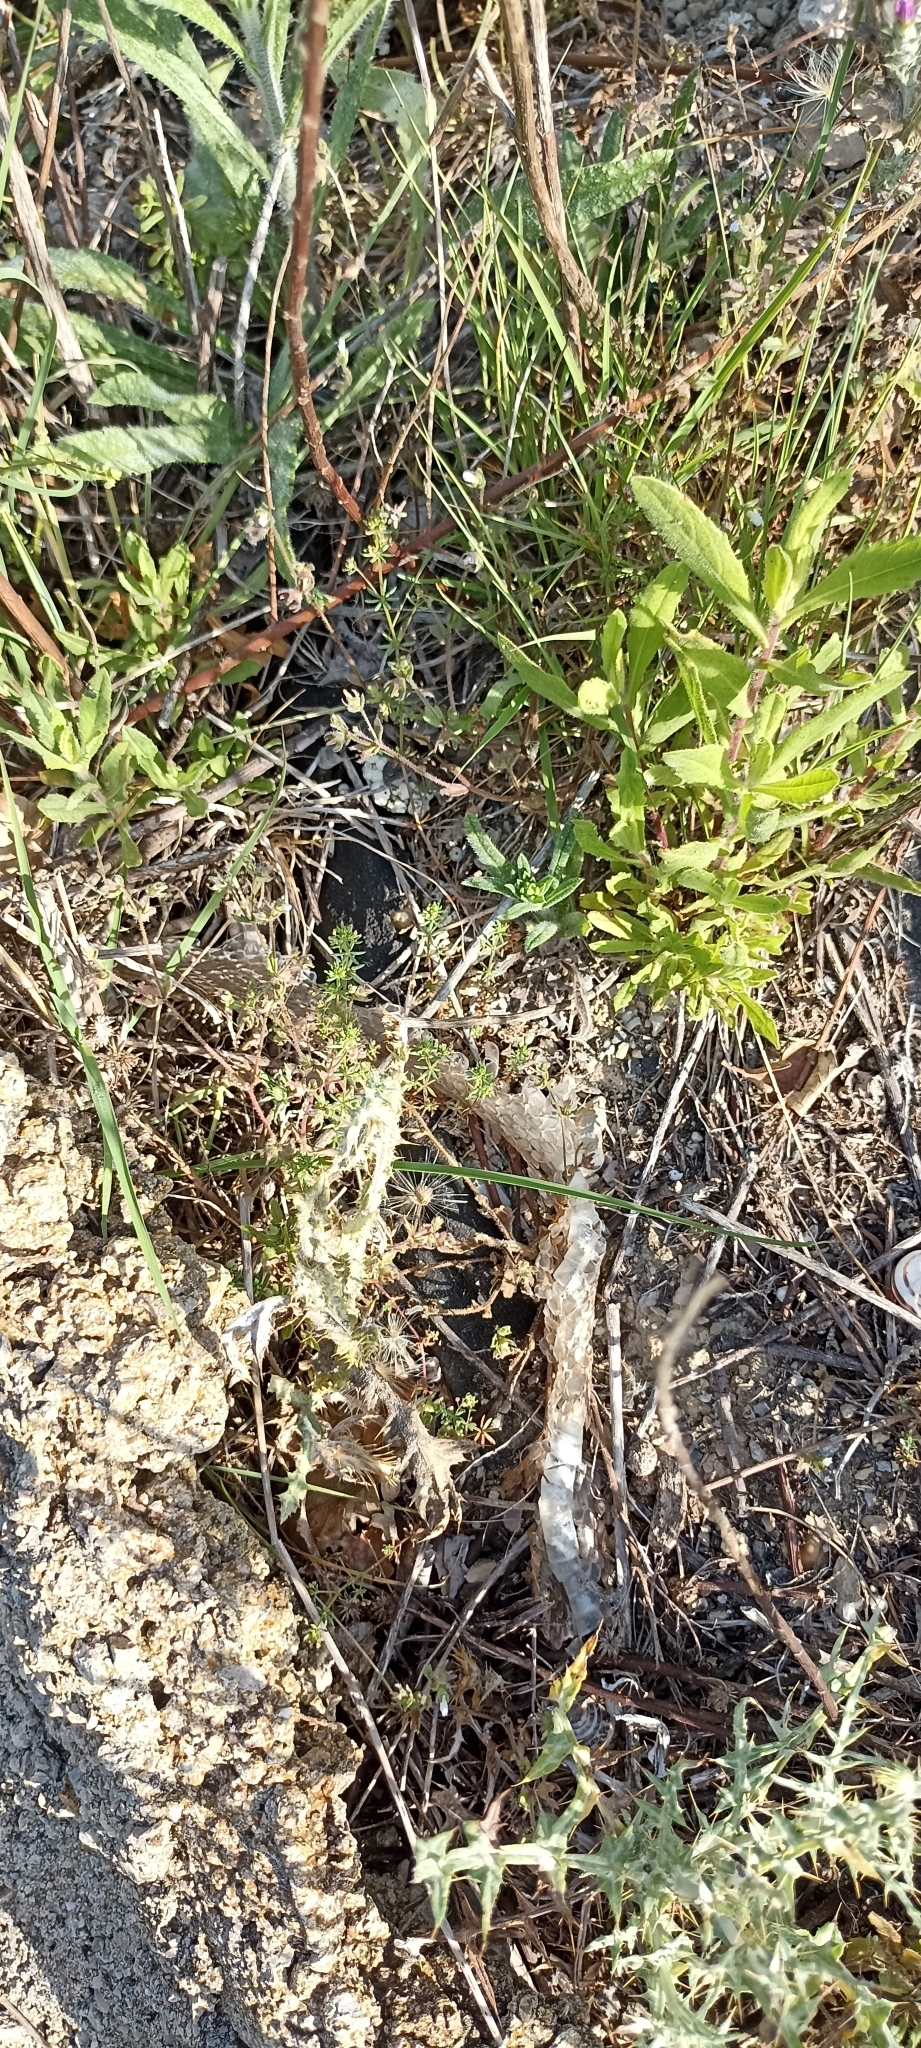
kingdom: Animalia
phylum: Chordata
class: Squamata
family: Psammophiidae
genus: Malpolon
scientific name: Malpolon monspessulanus
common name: Montpellier snake
